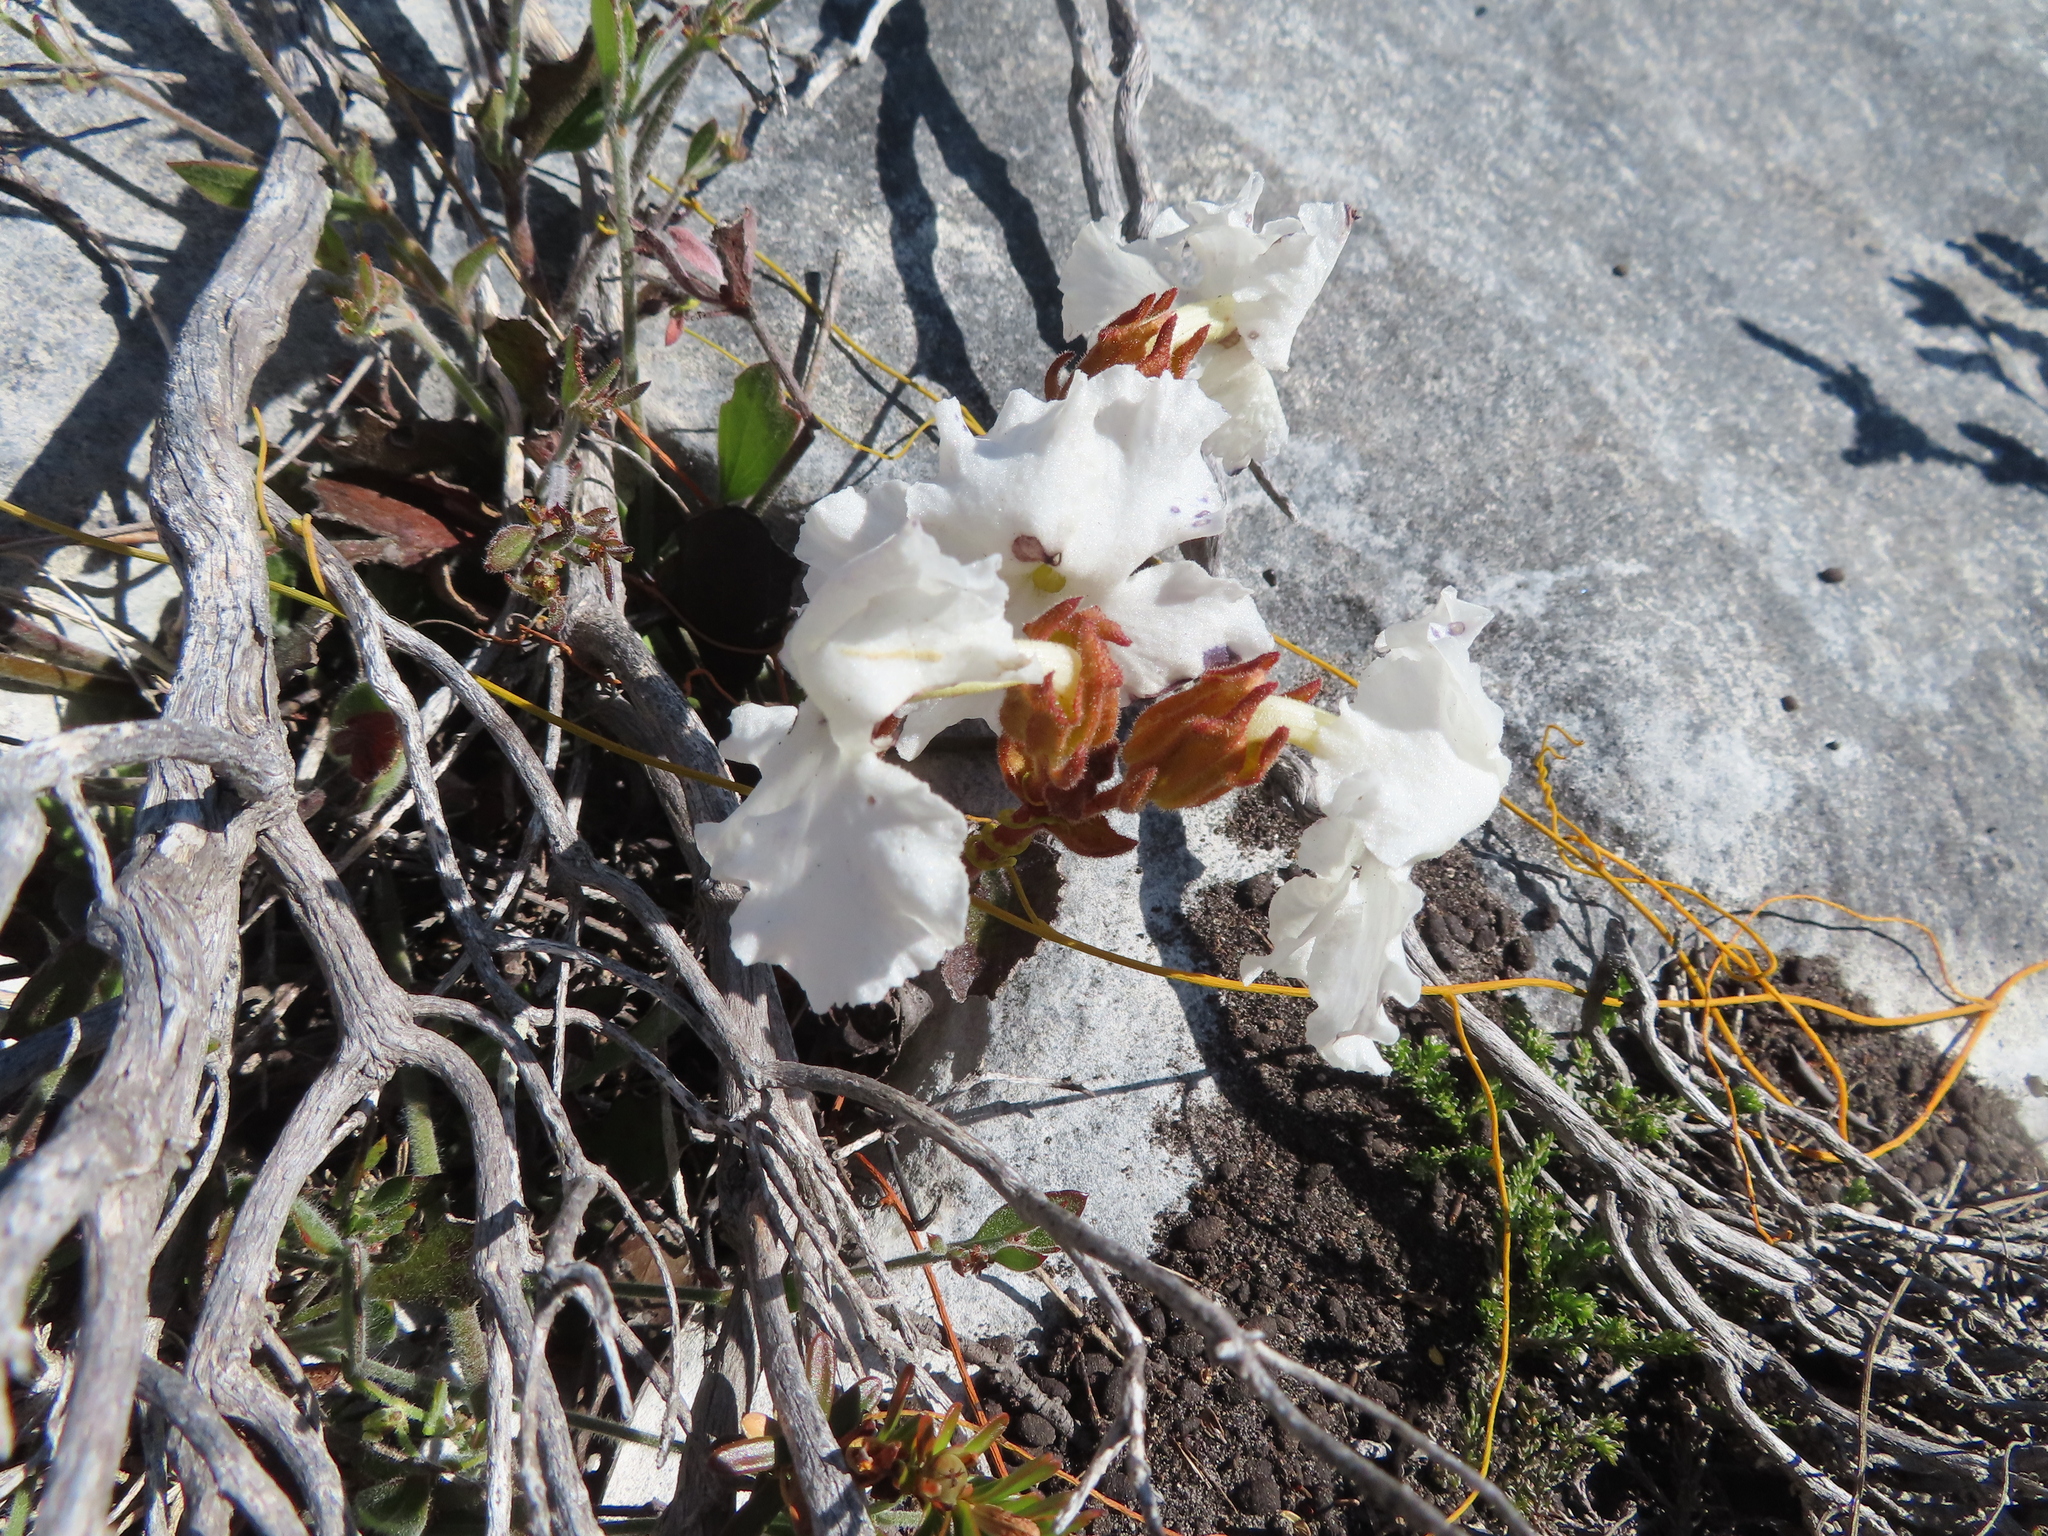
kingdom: Plantae
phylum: Tracheophyta
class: Magnoliopsida
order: Lamiales
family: Orobanchaceae
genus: Harveya
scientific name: Harveya capensis
